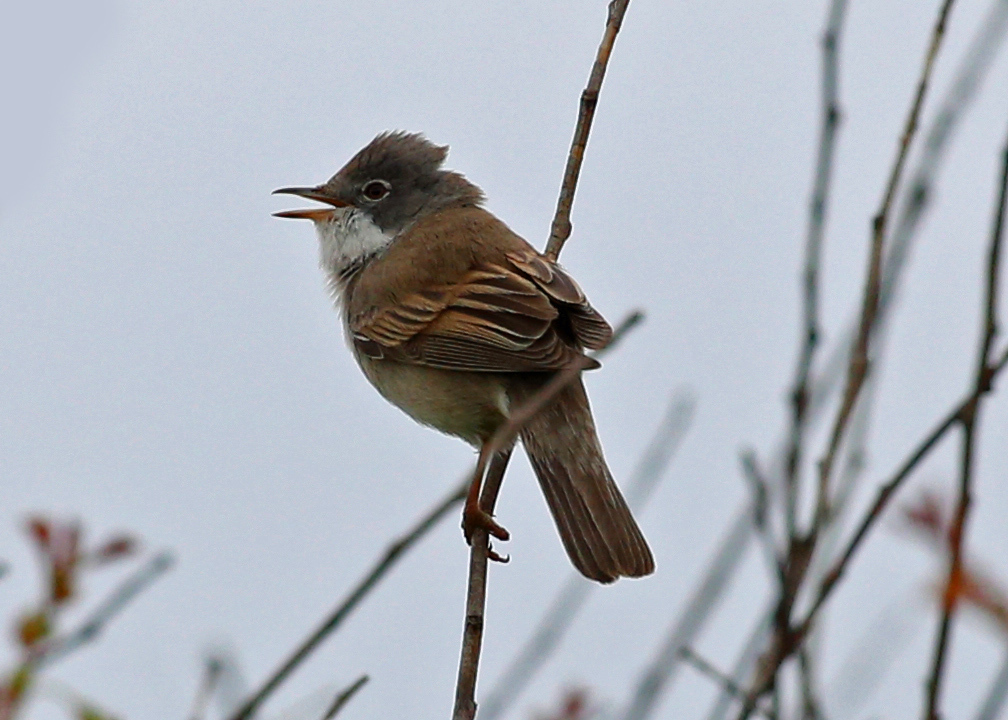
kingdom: Animalia
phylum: Chordata
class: Aves
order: Passeriformes
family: Sylviidae
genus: Sylvia
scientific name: Sylvia communis
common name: Common whitethroat
